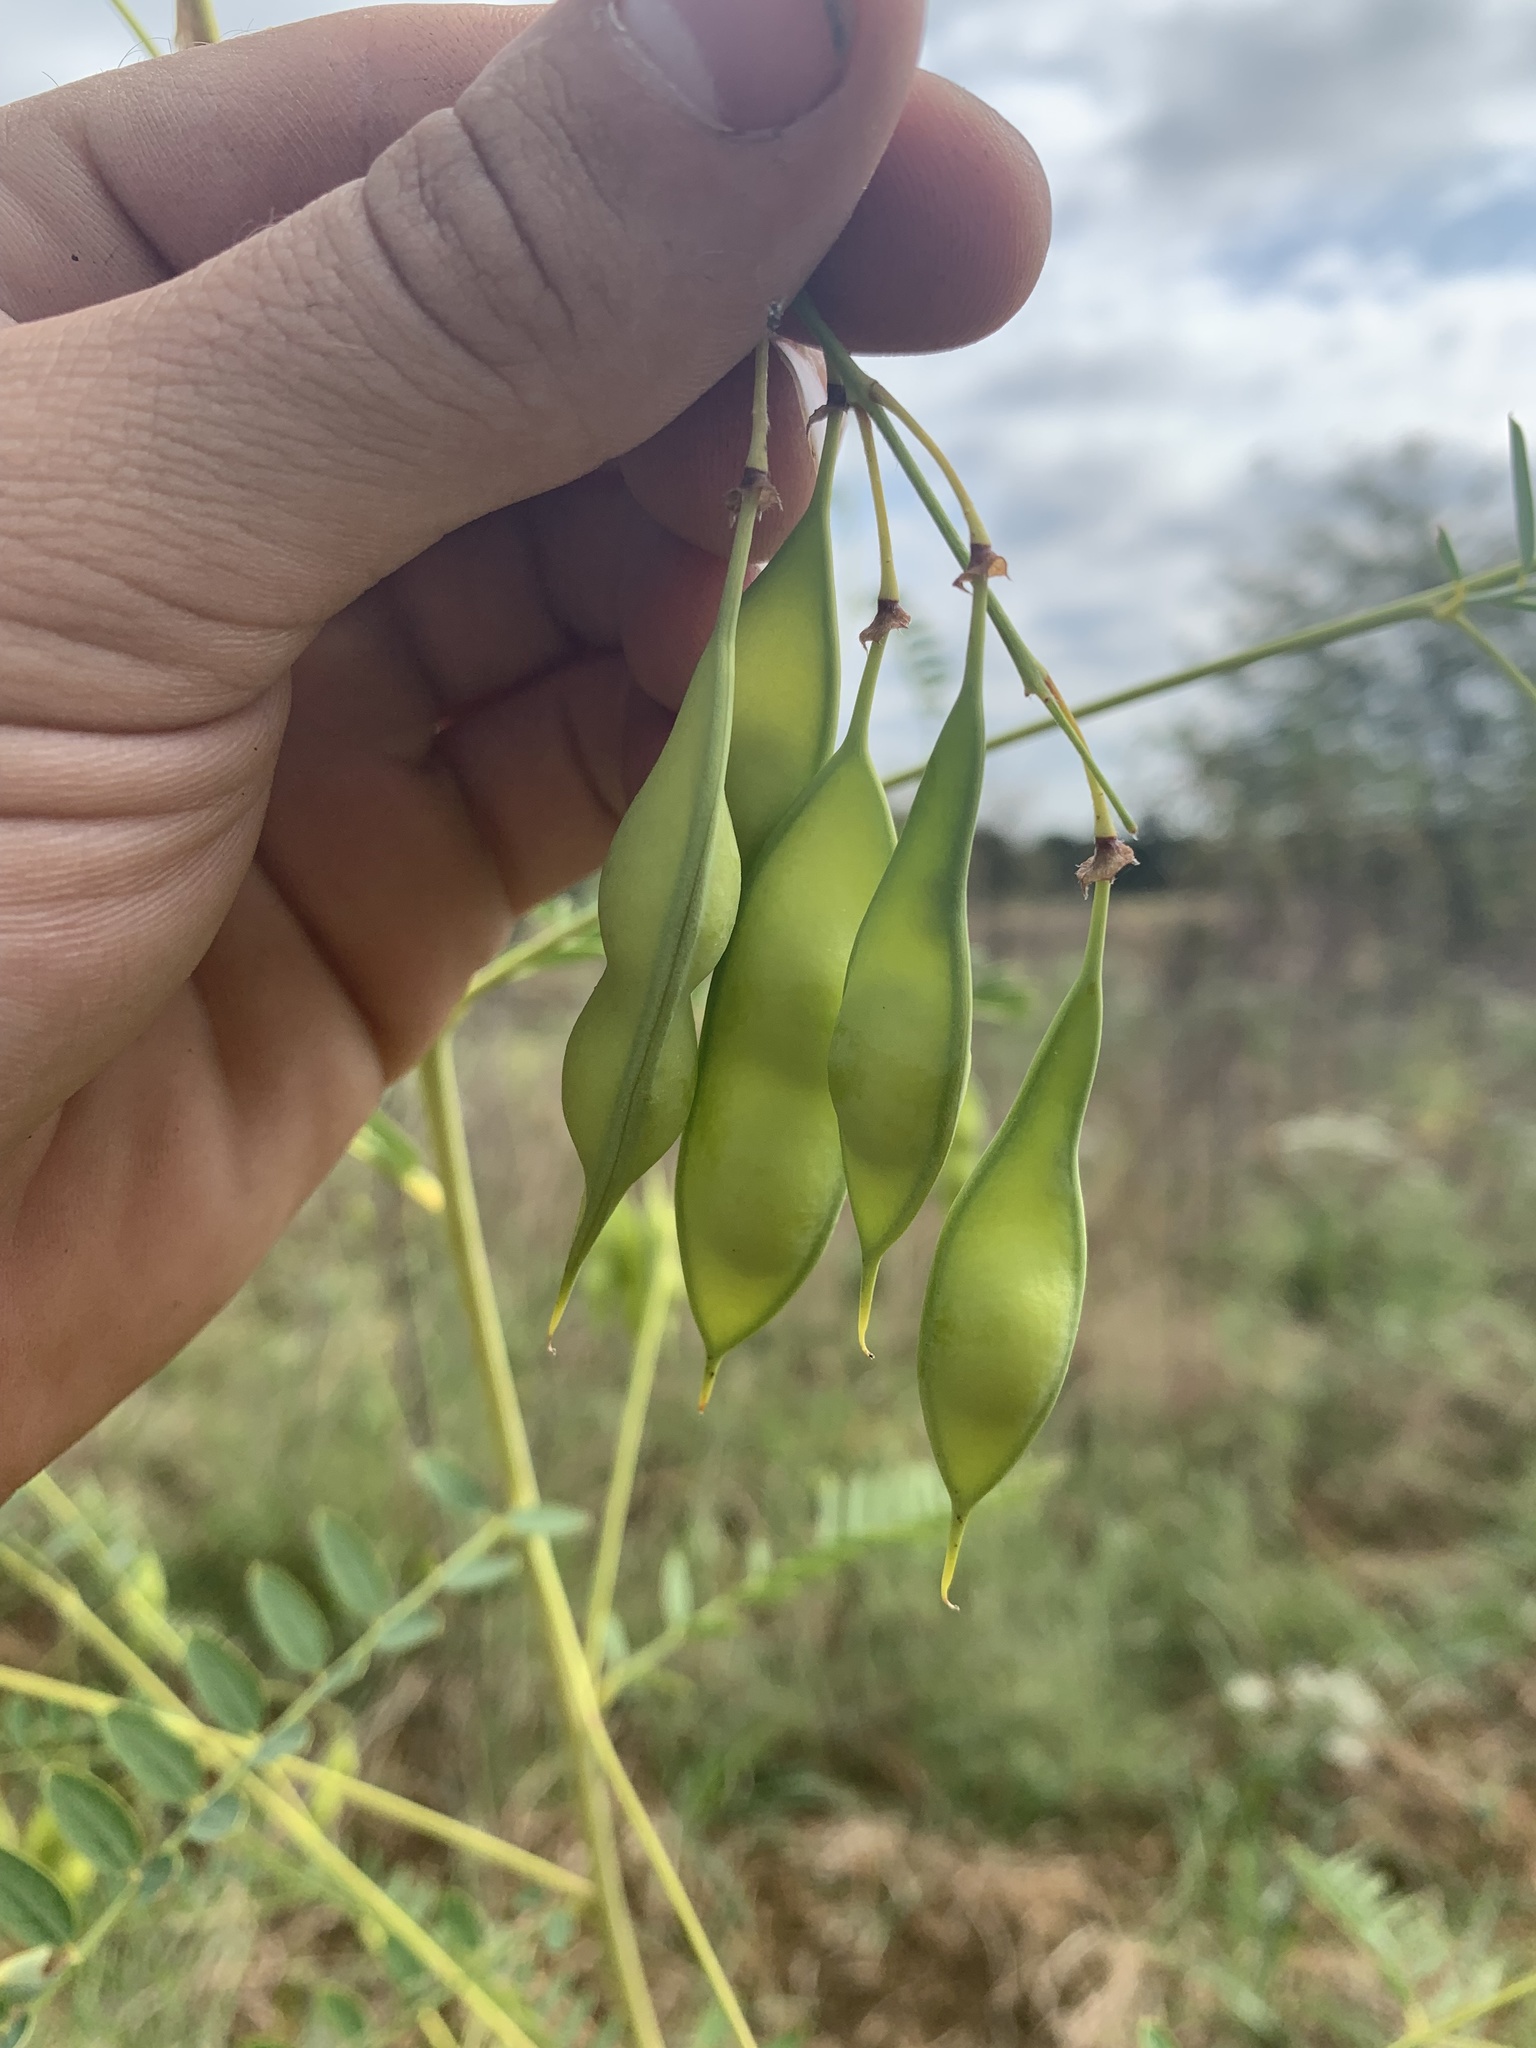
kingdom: Plantae
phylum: Tracheophyta
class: Magnoliopsida
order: Fabales
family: Fabaceae
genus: Sesbania
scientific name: Sesbania vesicaria
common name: Bagpod
